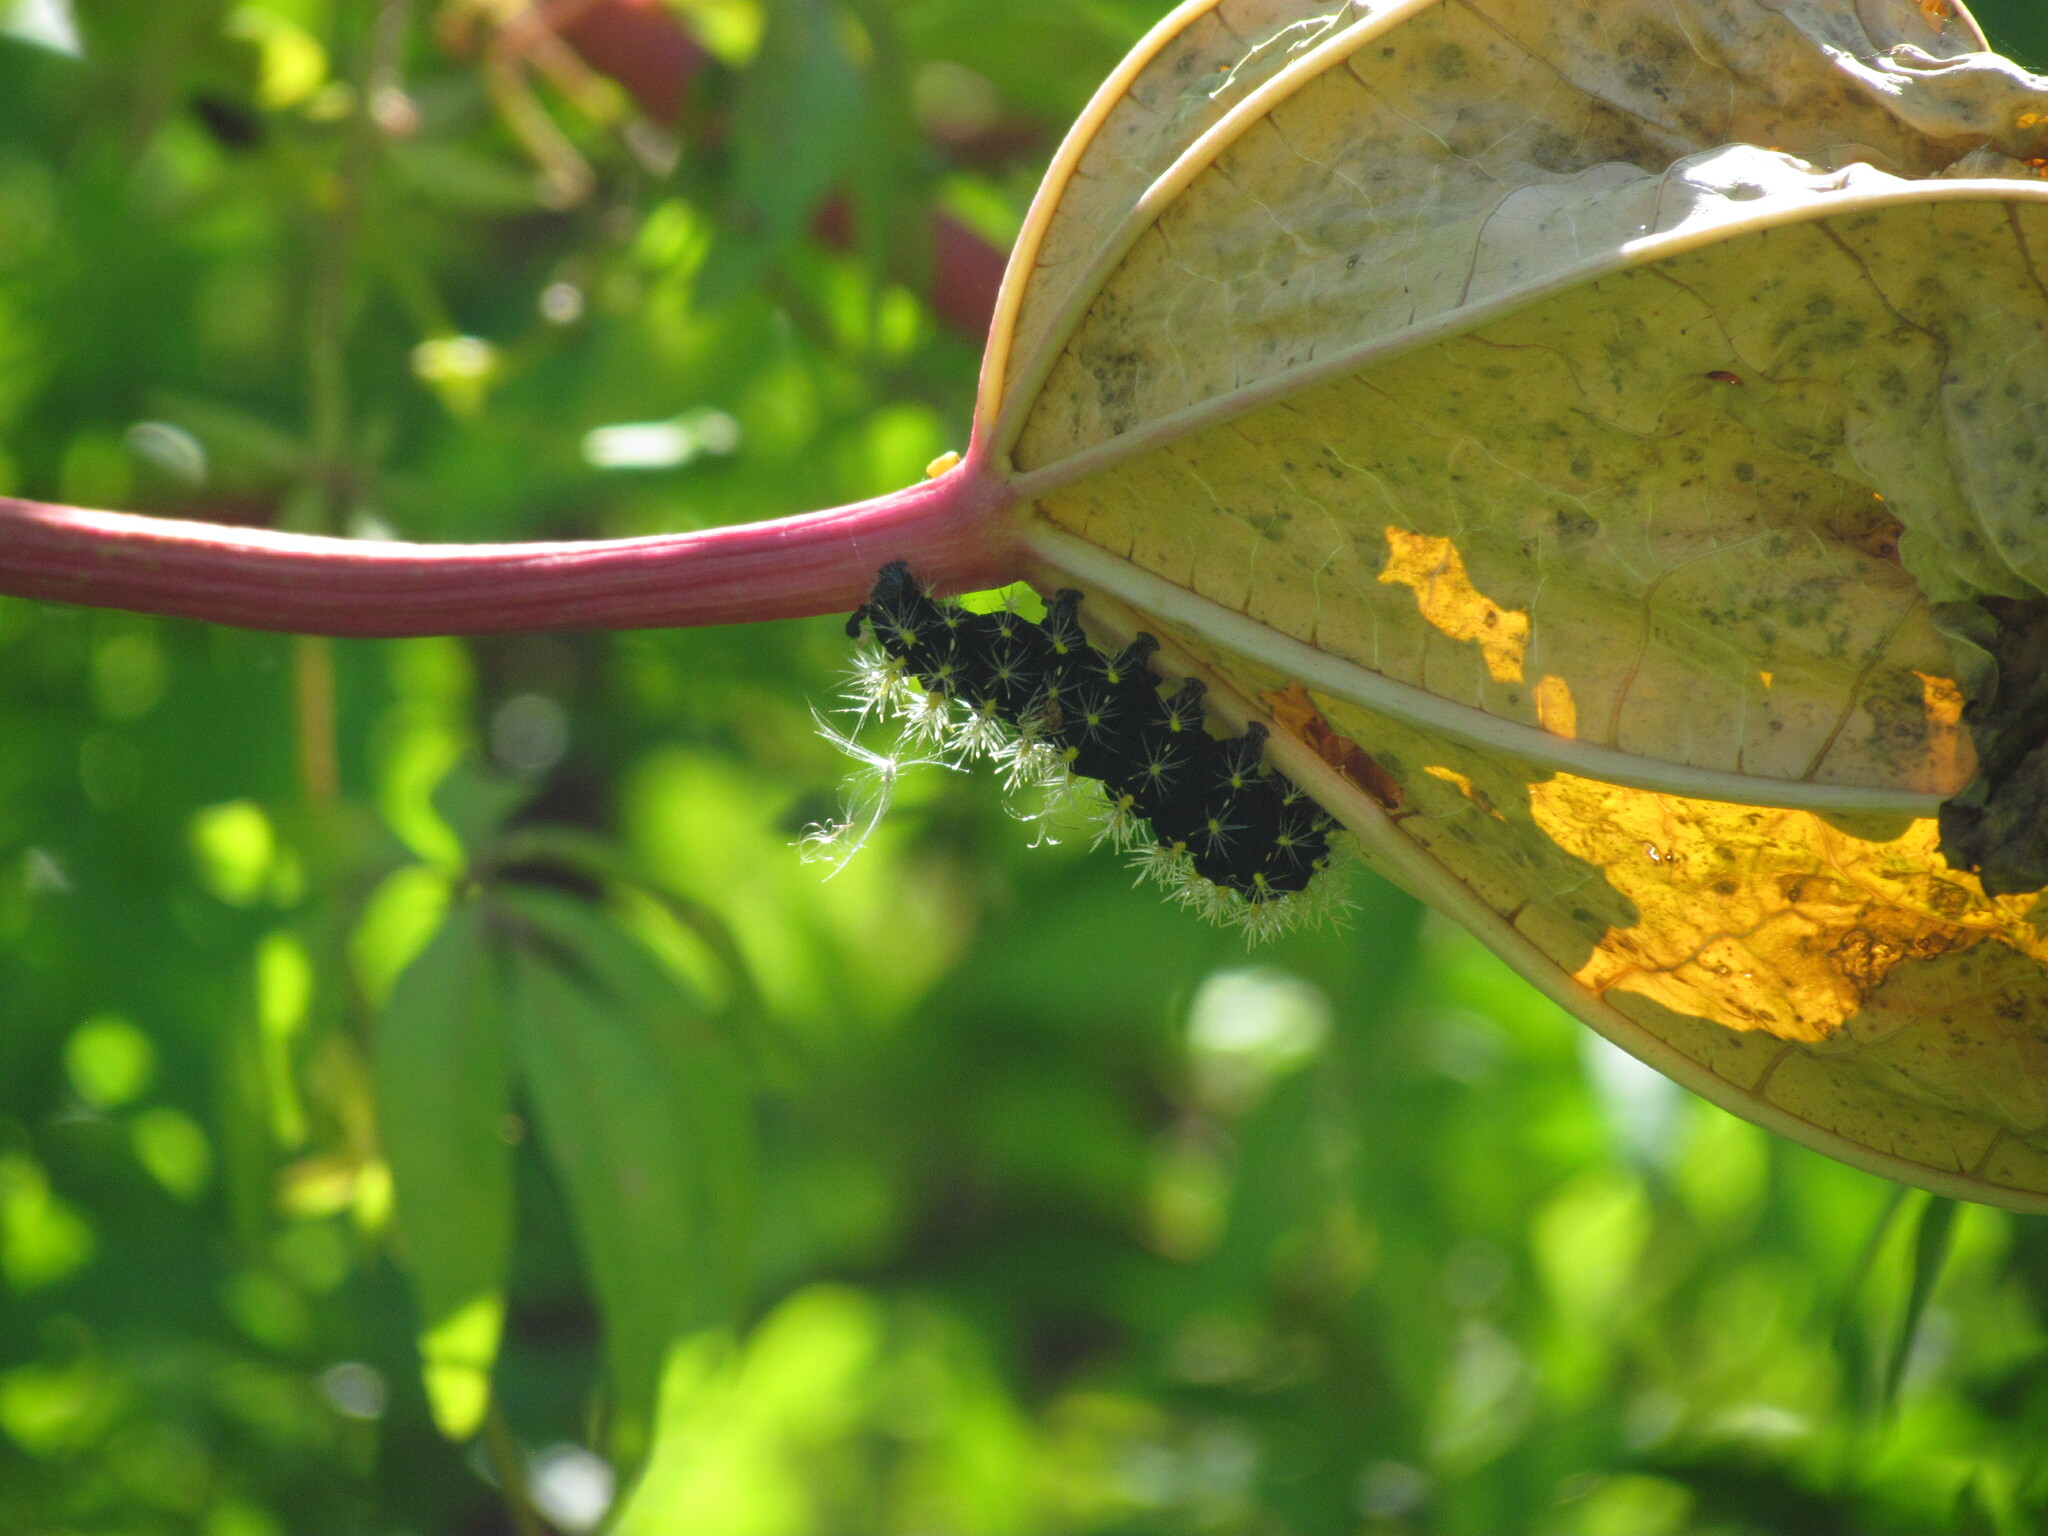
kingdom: Animalia
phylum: Arthropoda
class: Insecta
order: Lepidoptera
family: Saturniidae
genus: Leucanella
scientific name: Leucanella viridescens
